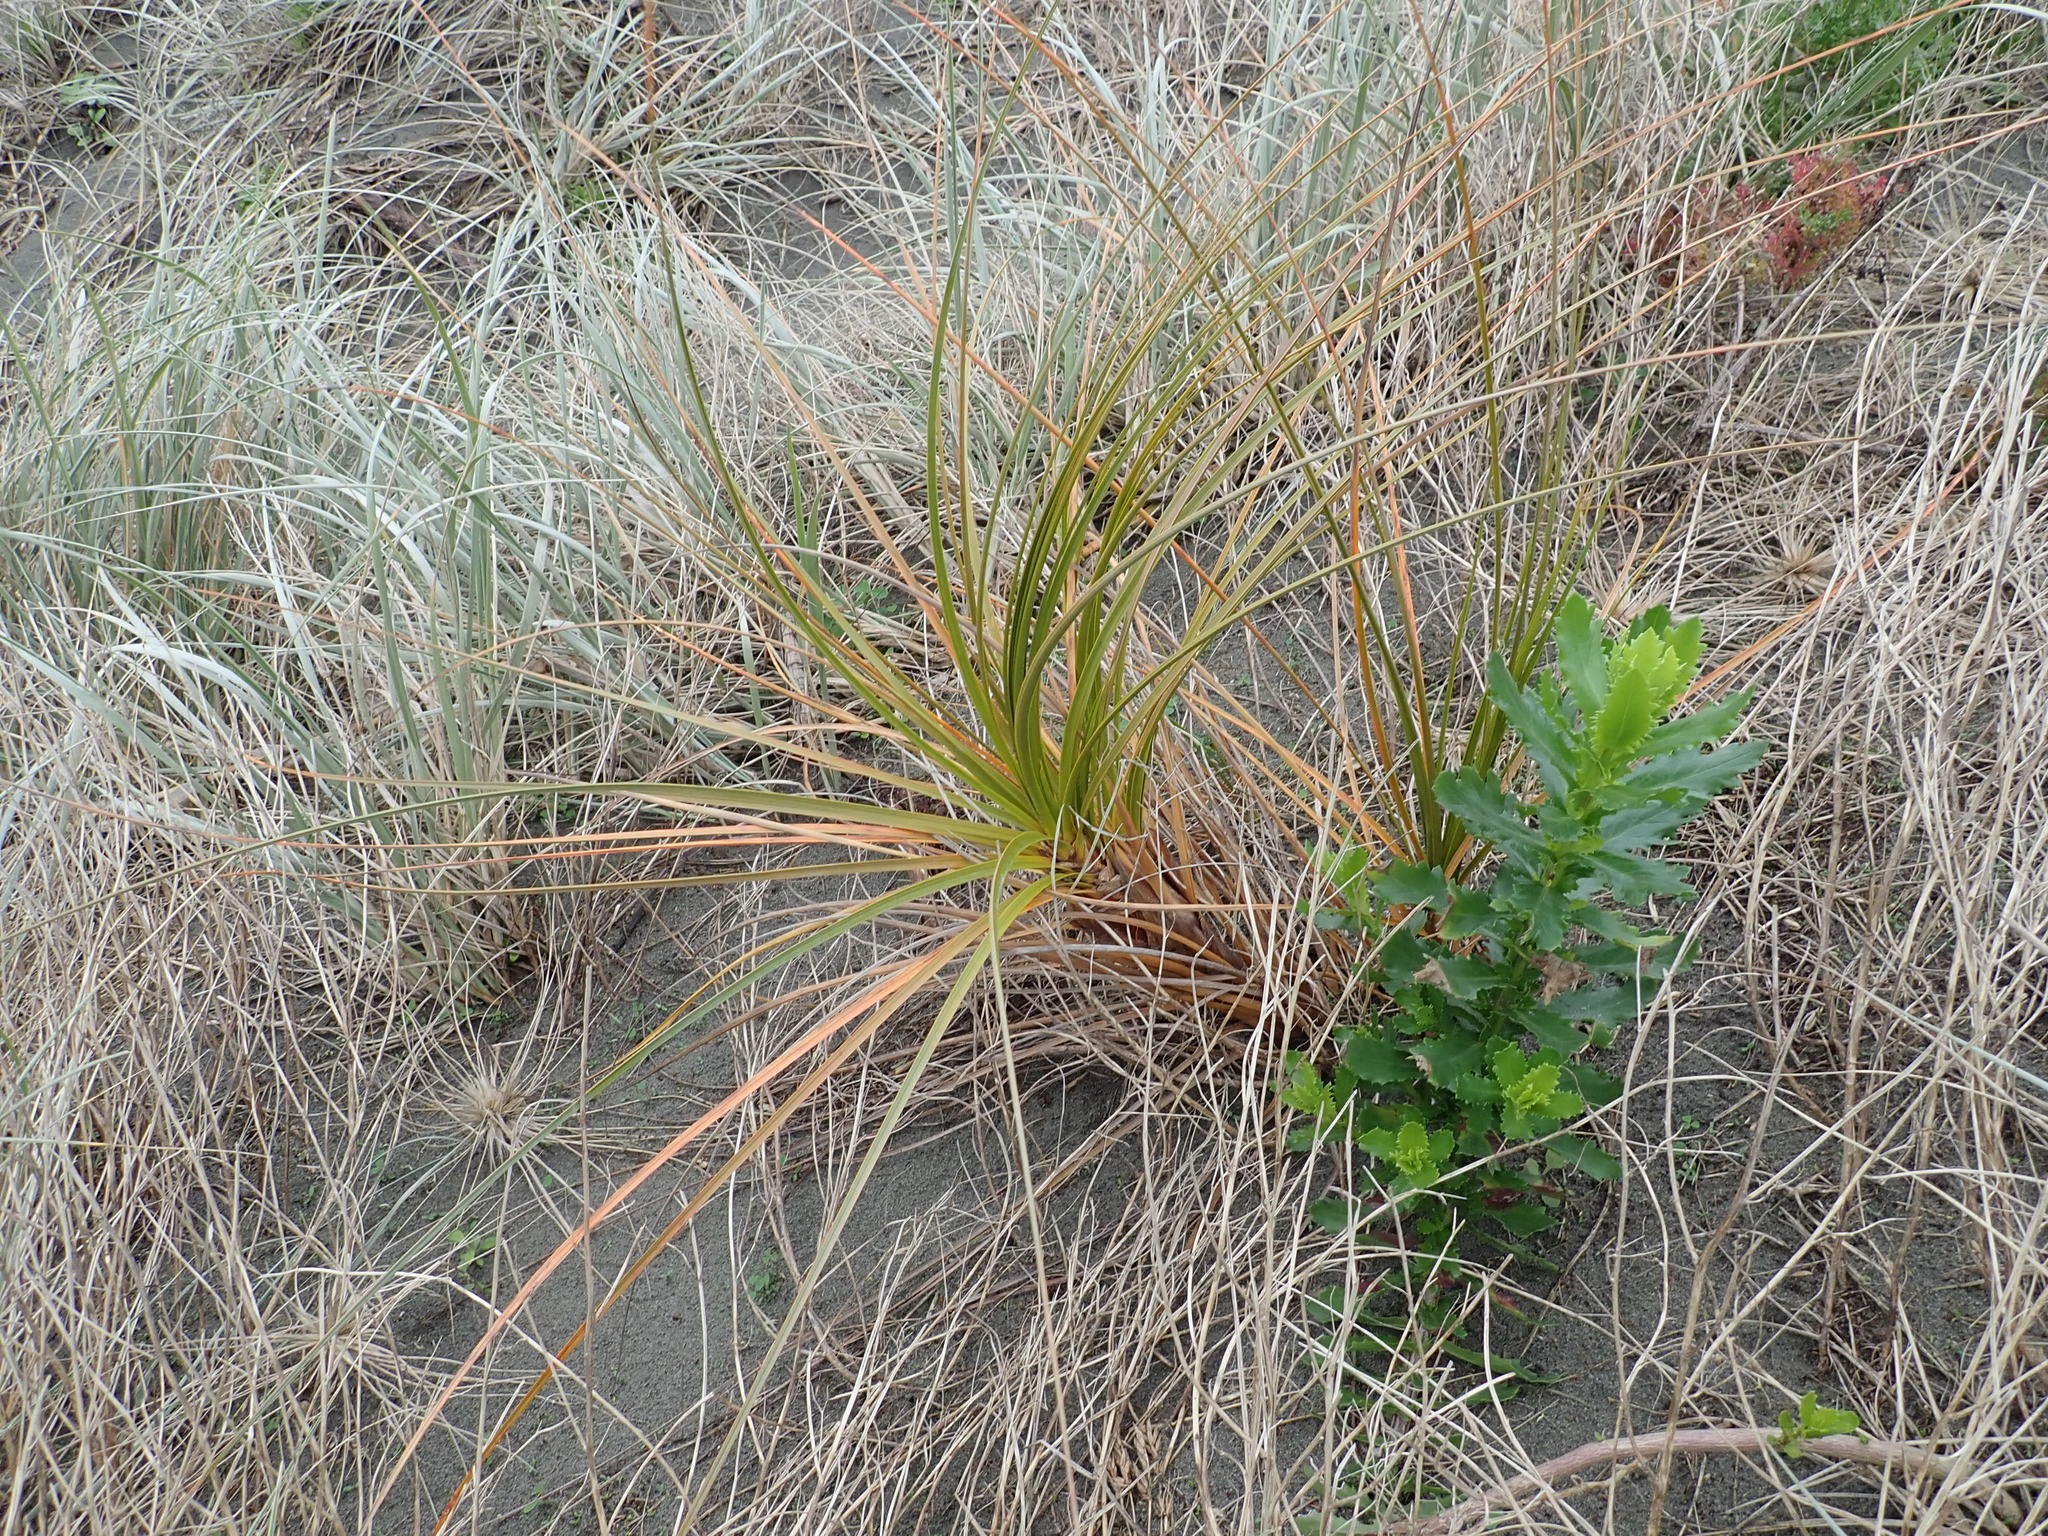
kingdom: Plantae
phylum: Tracheophyta
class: Liliopsida
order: Poales
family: Cyperaceae
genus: Ficinia
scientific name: Ficinia spiralis
